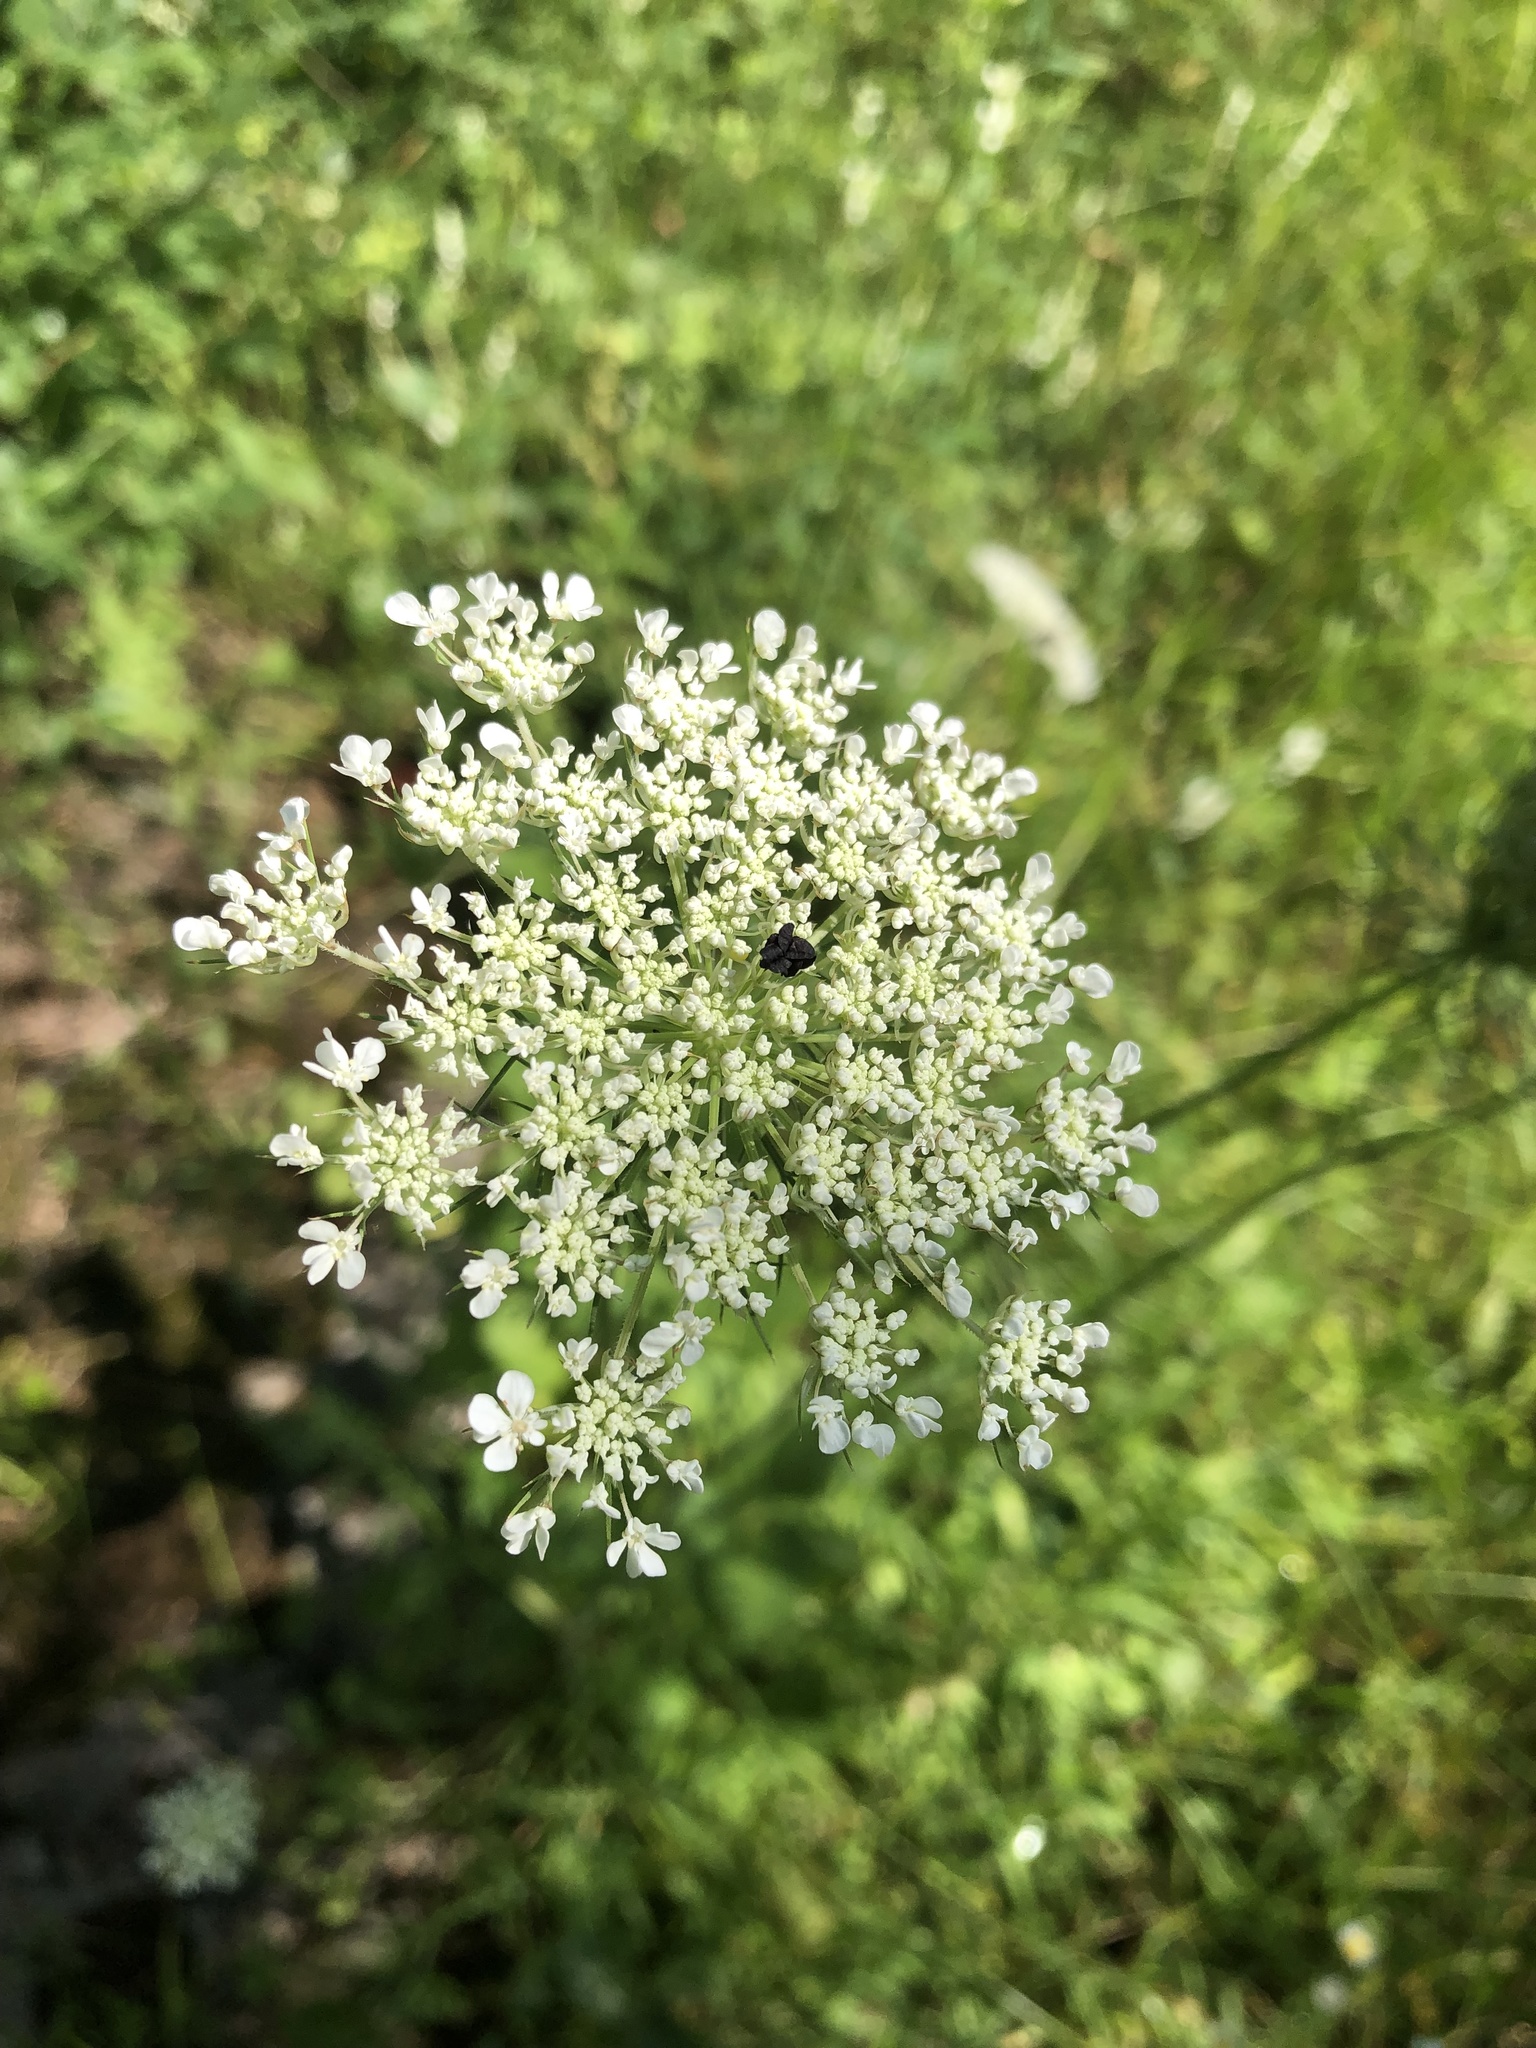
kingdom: Plantae
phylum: Tracheophyta
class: Magnoliopsida
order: Apiales
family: Apiaceae
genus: Daucus
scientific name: Daucus carota
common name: Wild carrot
